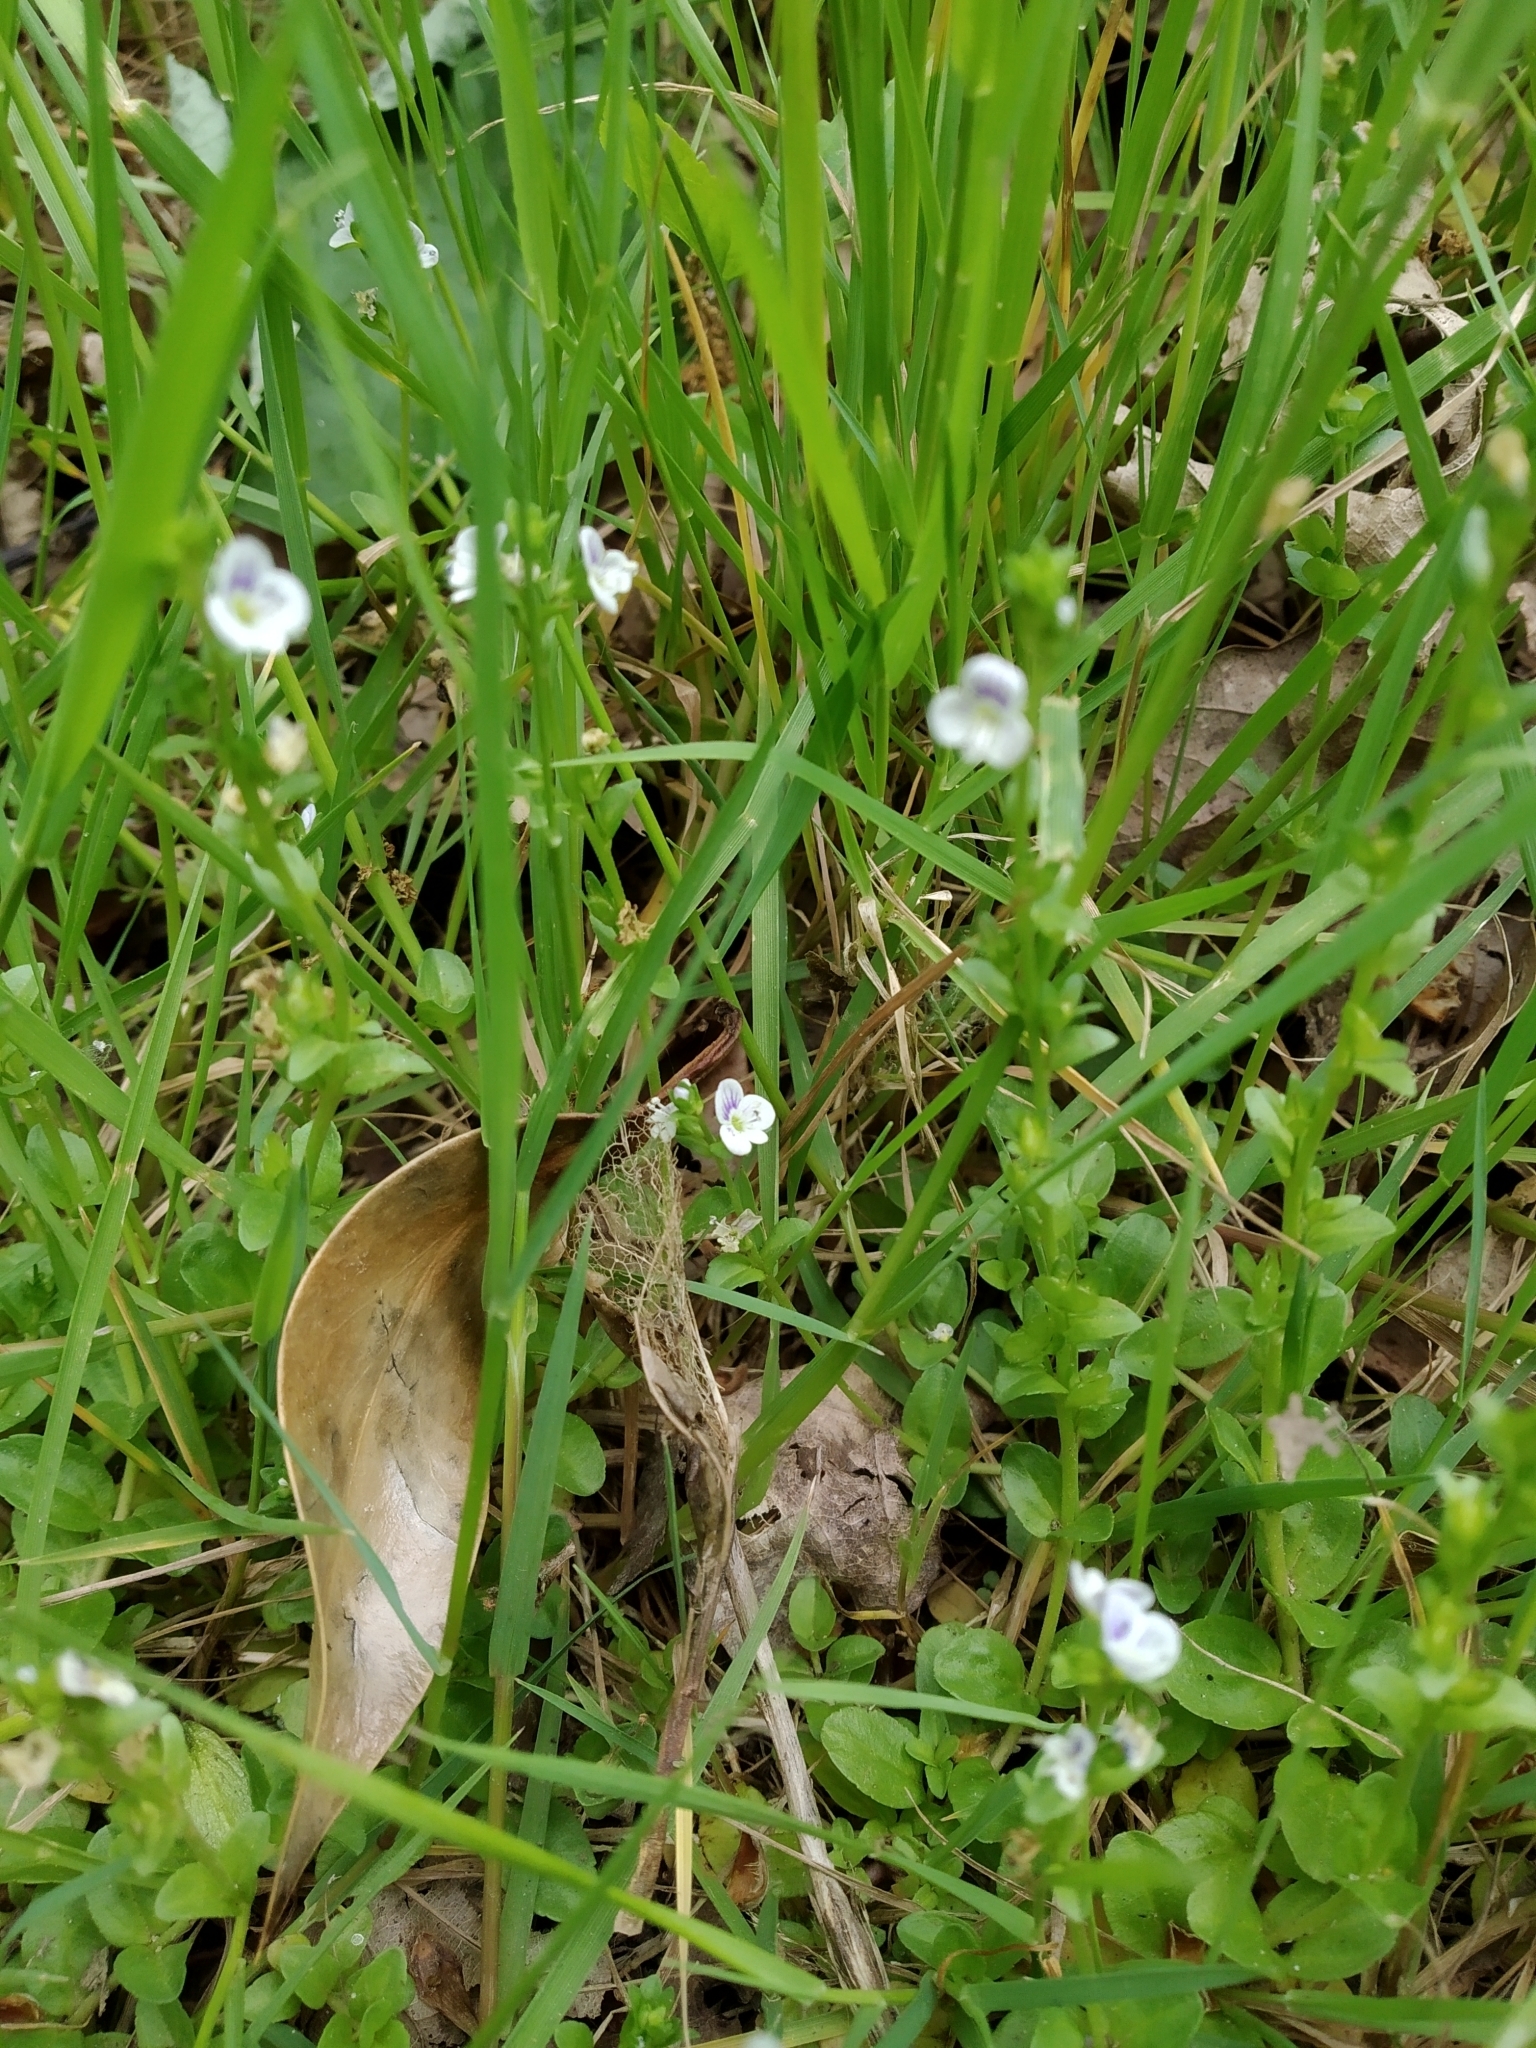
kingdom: Plantae
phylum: Tracheophyta
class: Magnoliopsida
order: Lamiales
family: Plantaginaceae
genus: Veronica
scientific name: Veronica serpyllifolia
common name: Thyme-leaved speedwell
